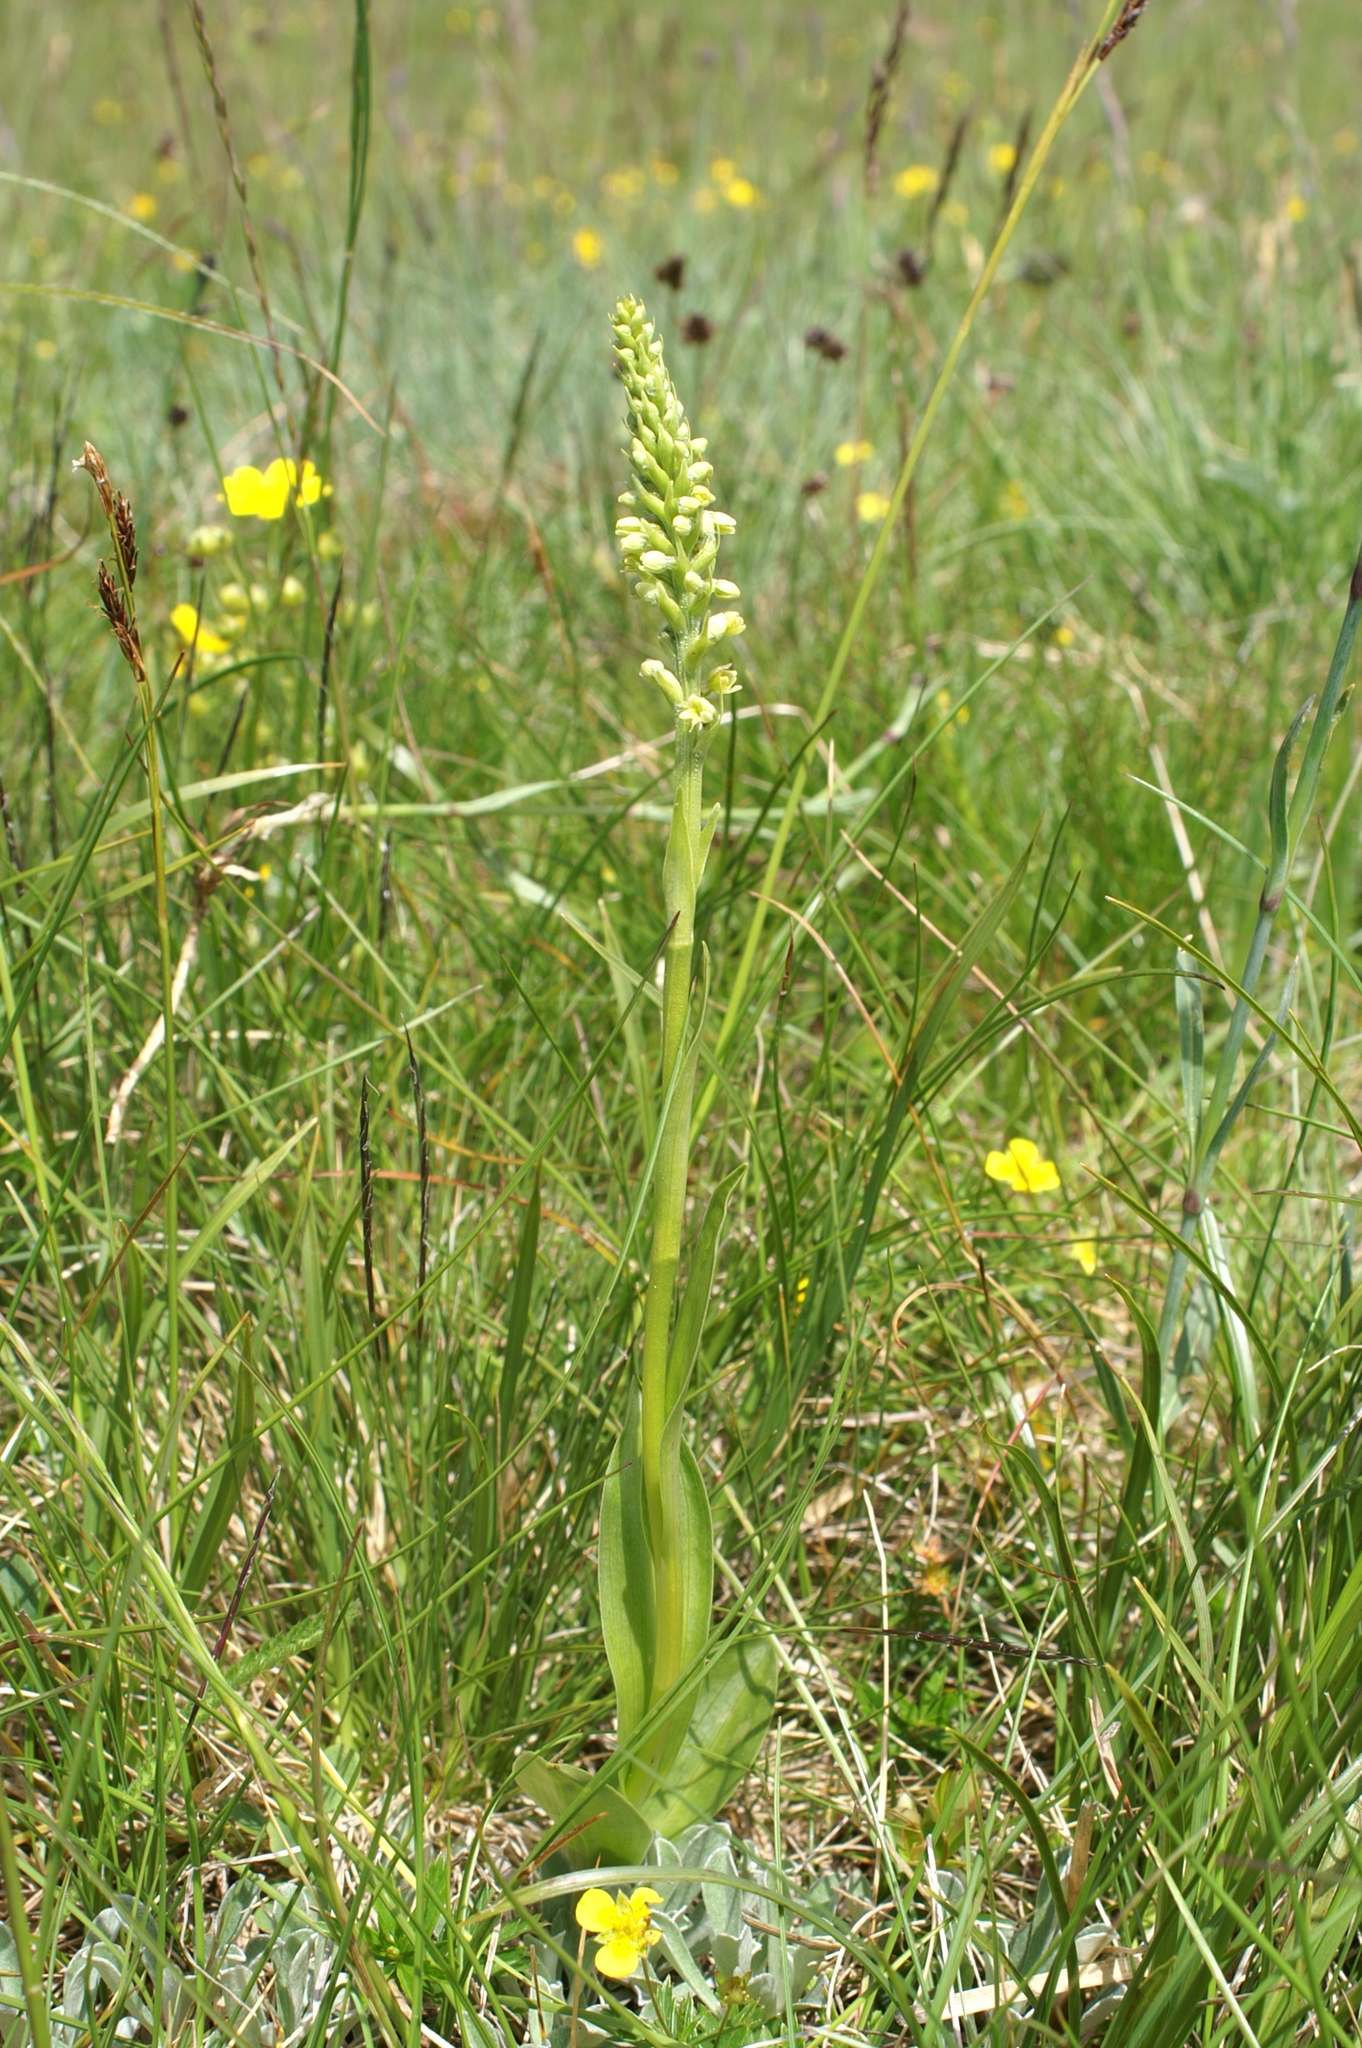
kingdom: Plantae
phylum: Tracheophyta
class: Liliopsida
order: Asparagales
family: Orchidaceae
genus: Pseudorchis
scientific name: Pseudorchis albida
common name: Small-white orchid
